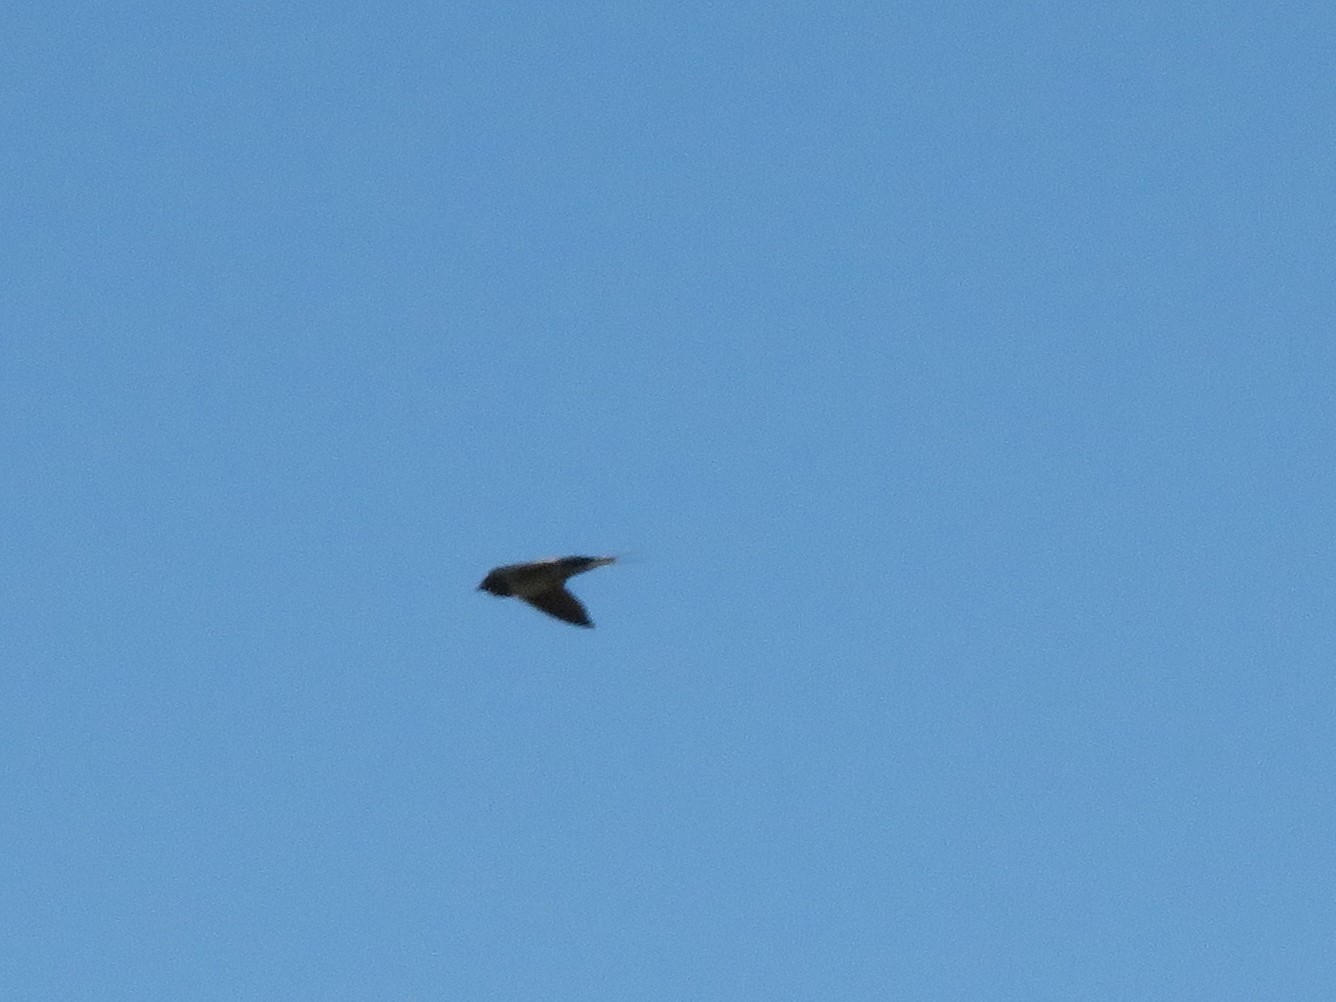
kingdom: Animalia
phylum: Chordata
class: Aves
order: Passeriformes
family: Hirundinidae
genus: Hirundo
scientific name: Hirundo rustica
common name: Barn swallow
